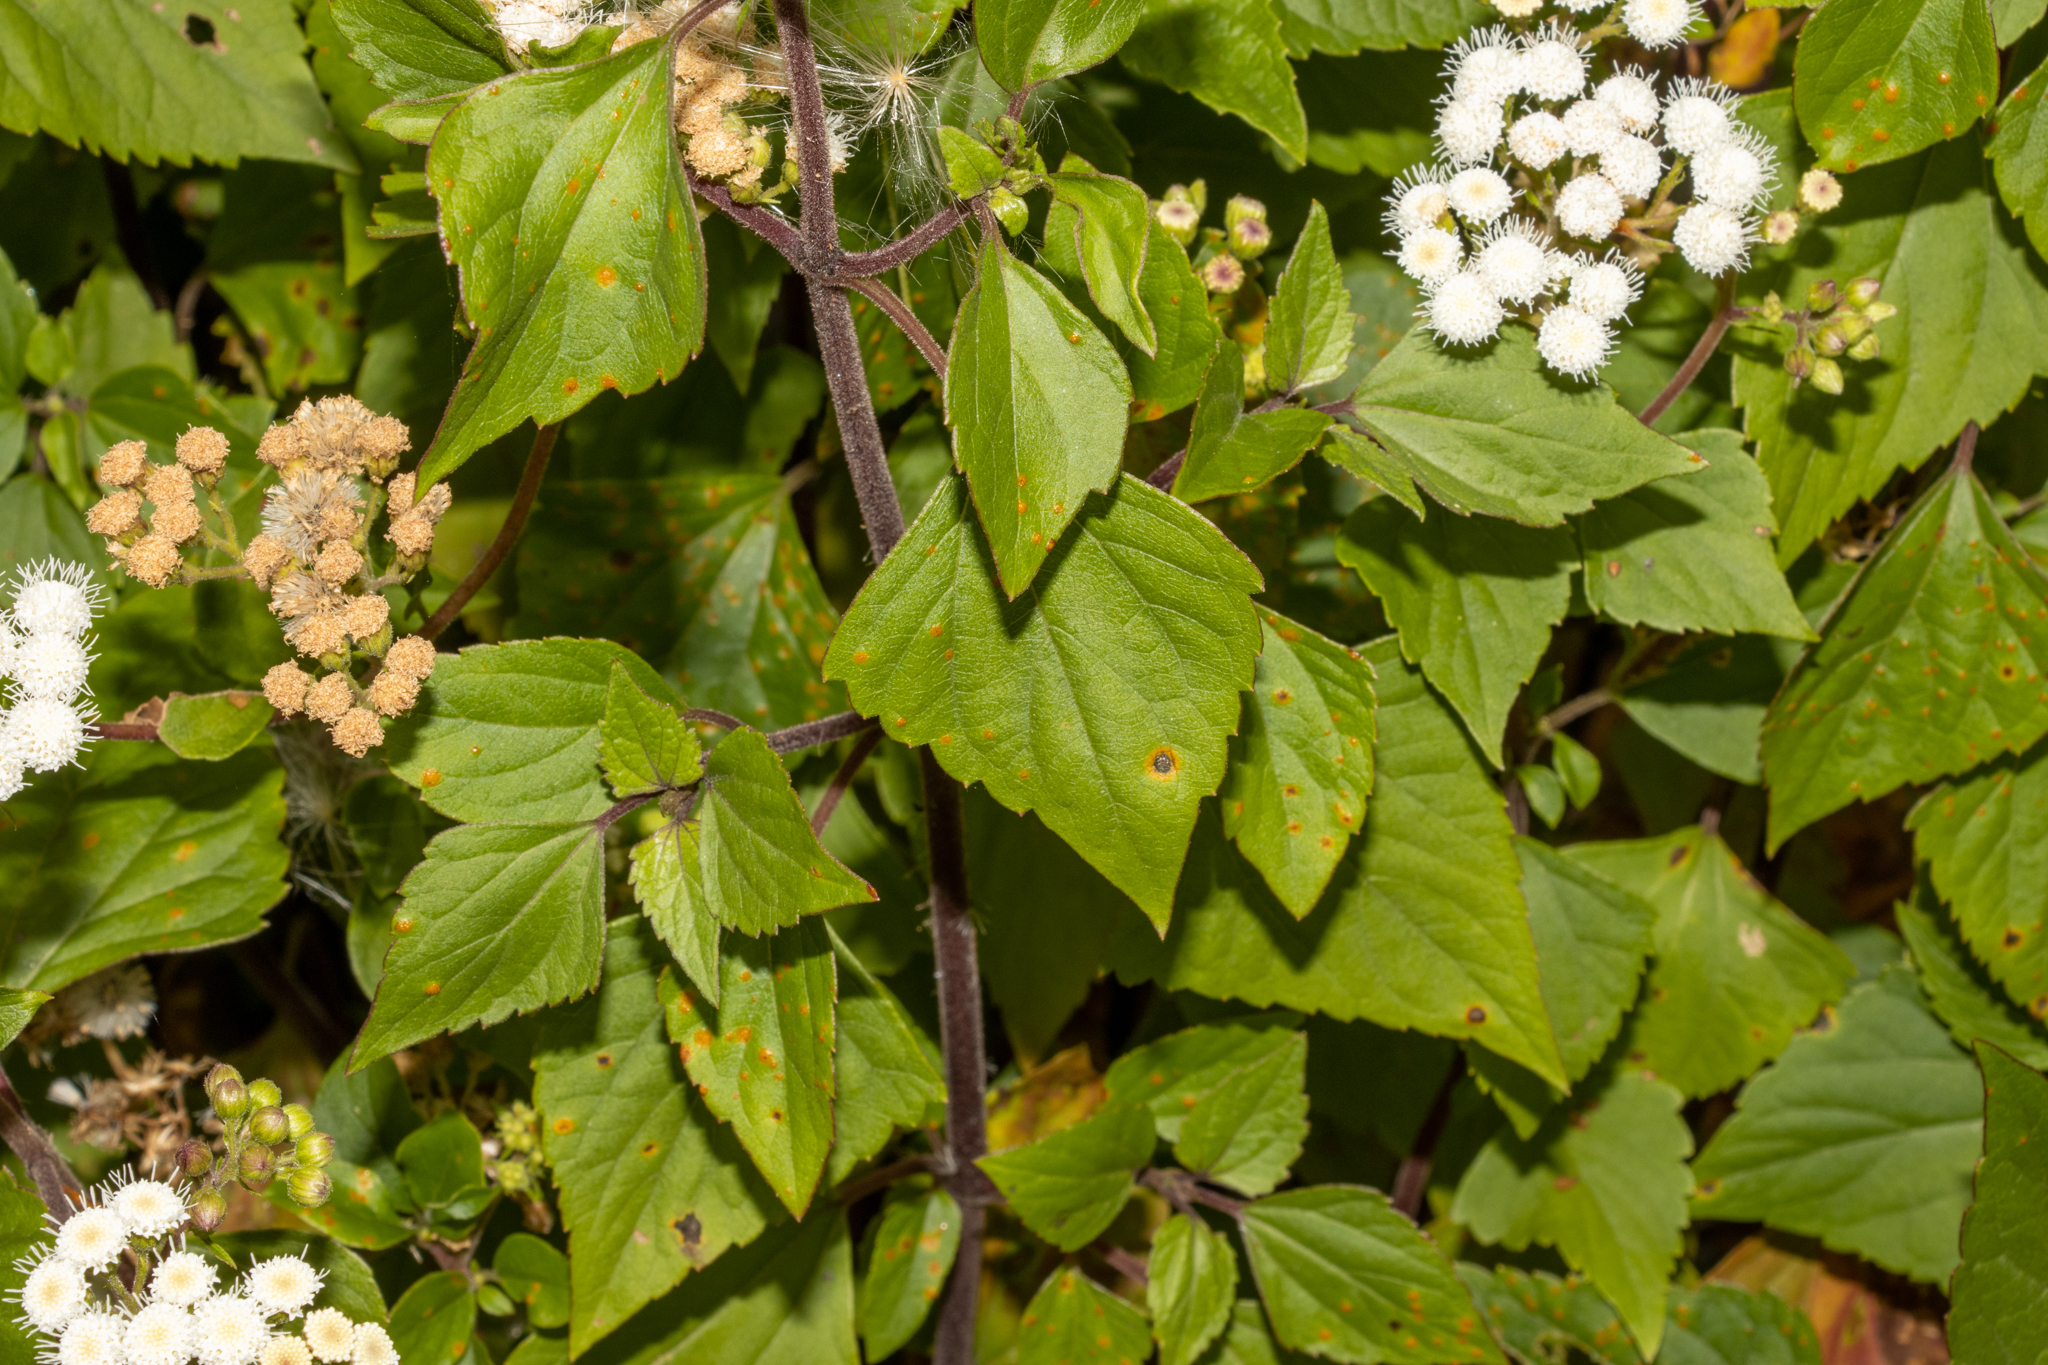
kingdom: Plantae
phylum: Tracheophyta
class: Magnoliopsida
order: Asterales
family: Asteraceae
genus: Ageratina
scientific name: Ageratina adenophora
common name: Sticky snakeroot
